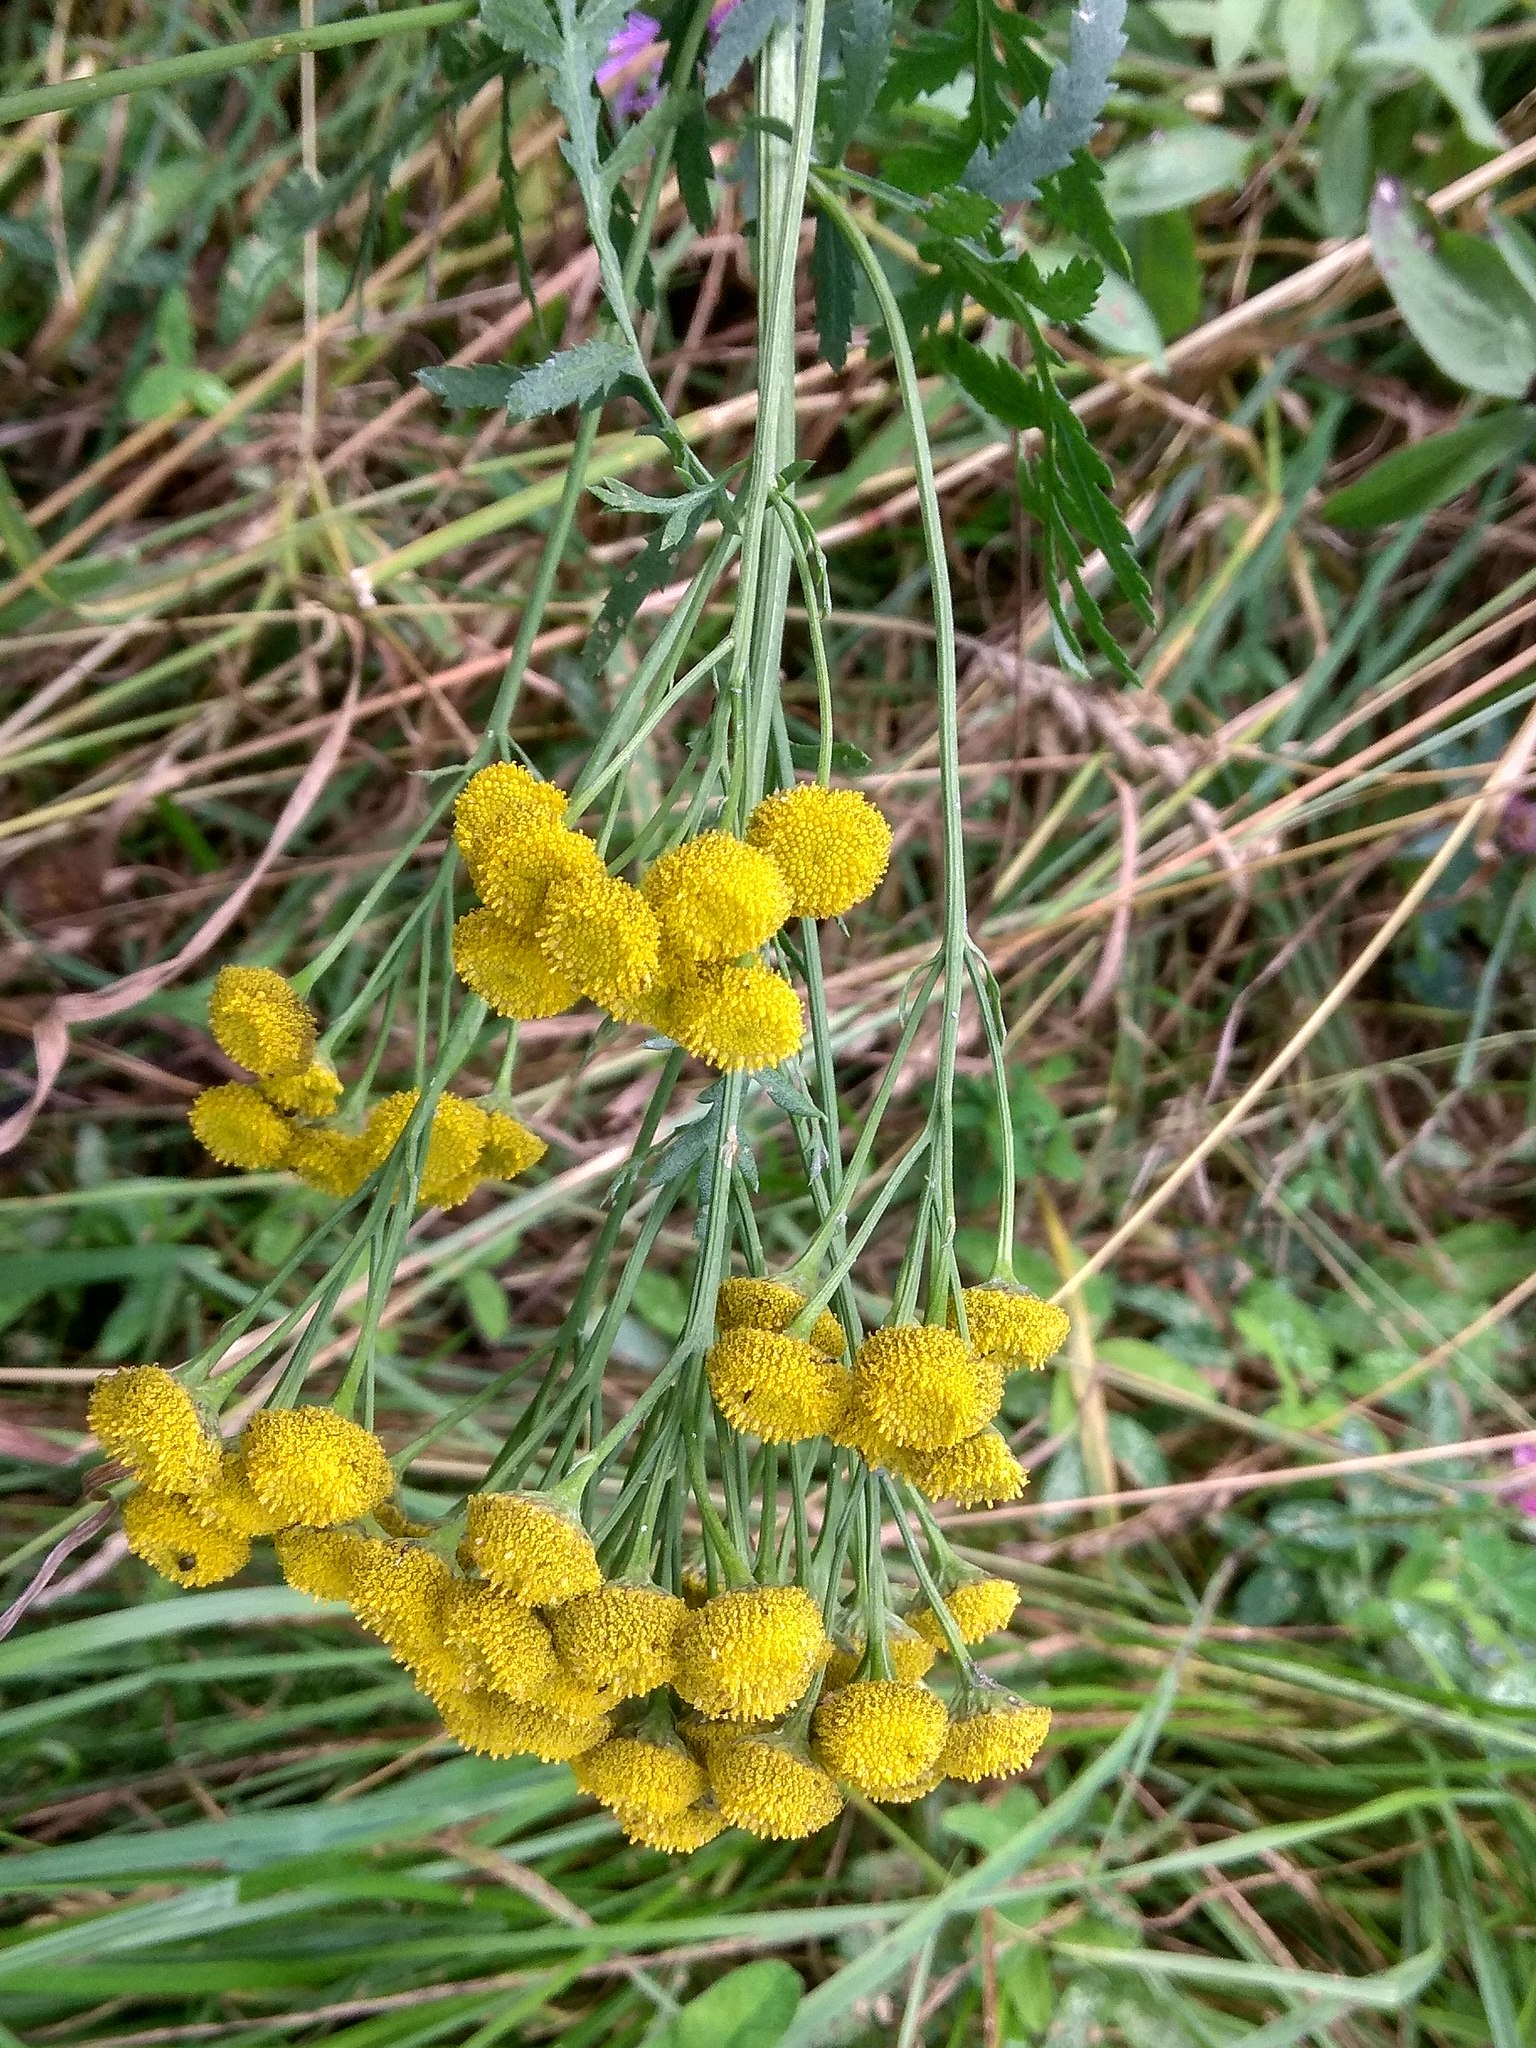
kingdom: Plantae
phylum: Tracheophyta
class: Magnoliopsida
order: Asterales
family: Asteraceae
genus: Tanacetum
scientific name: Tanacetum vulgare
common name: Common tansy
